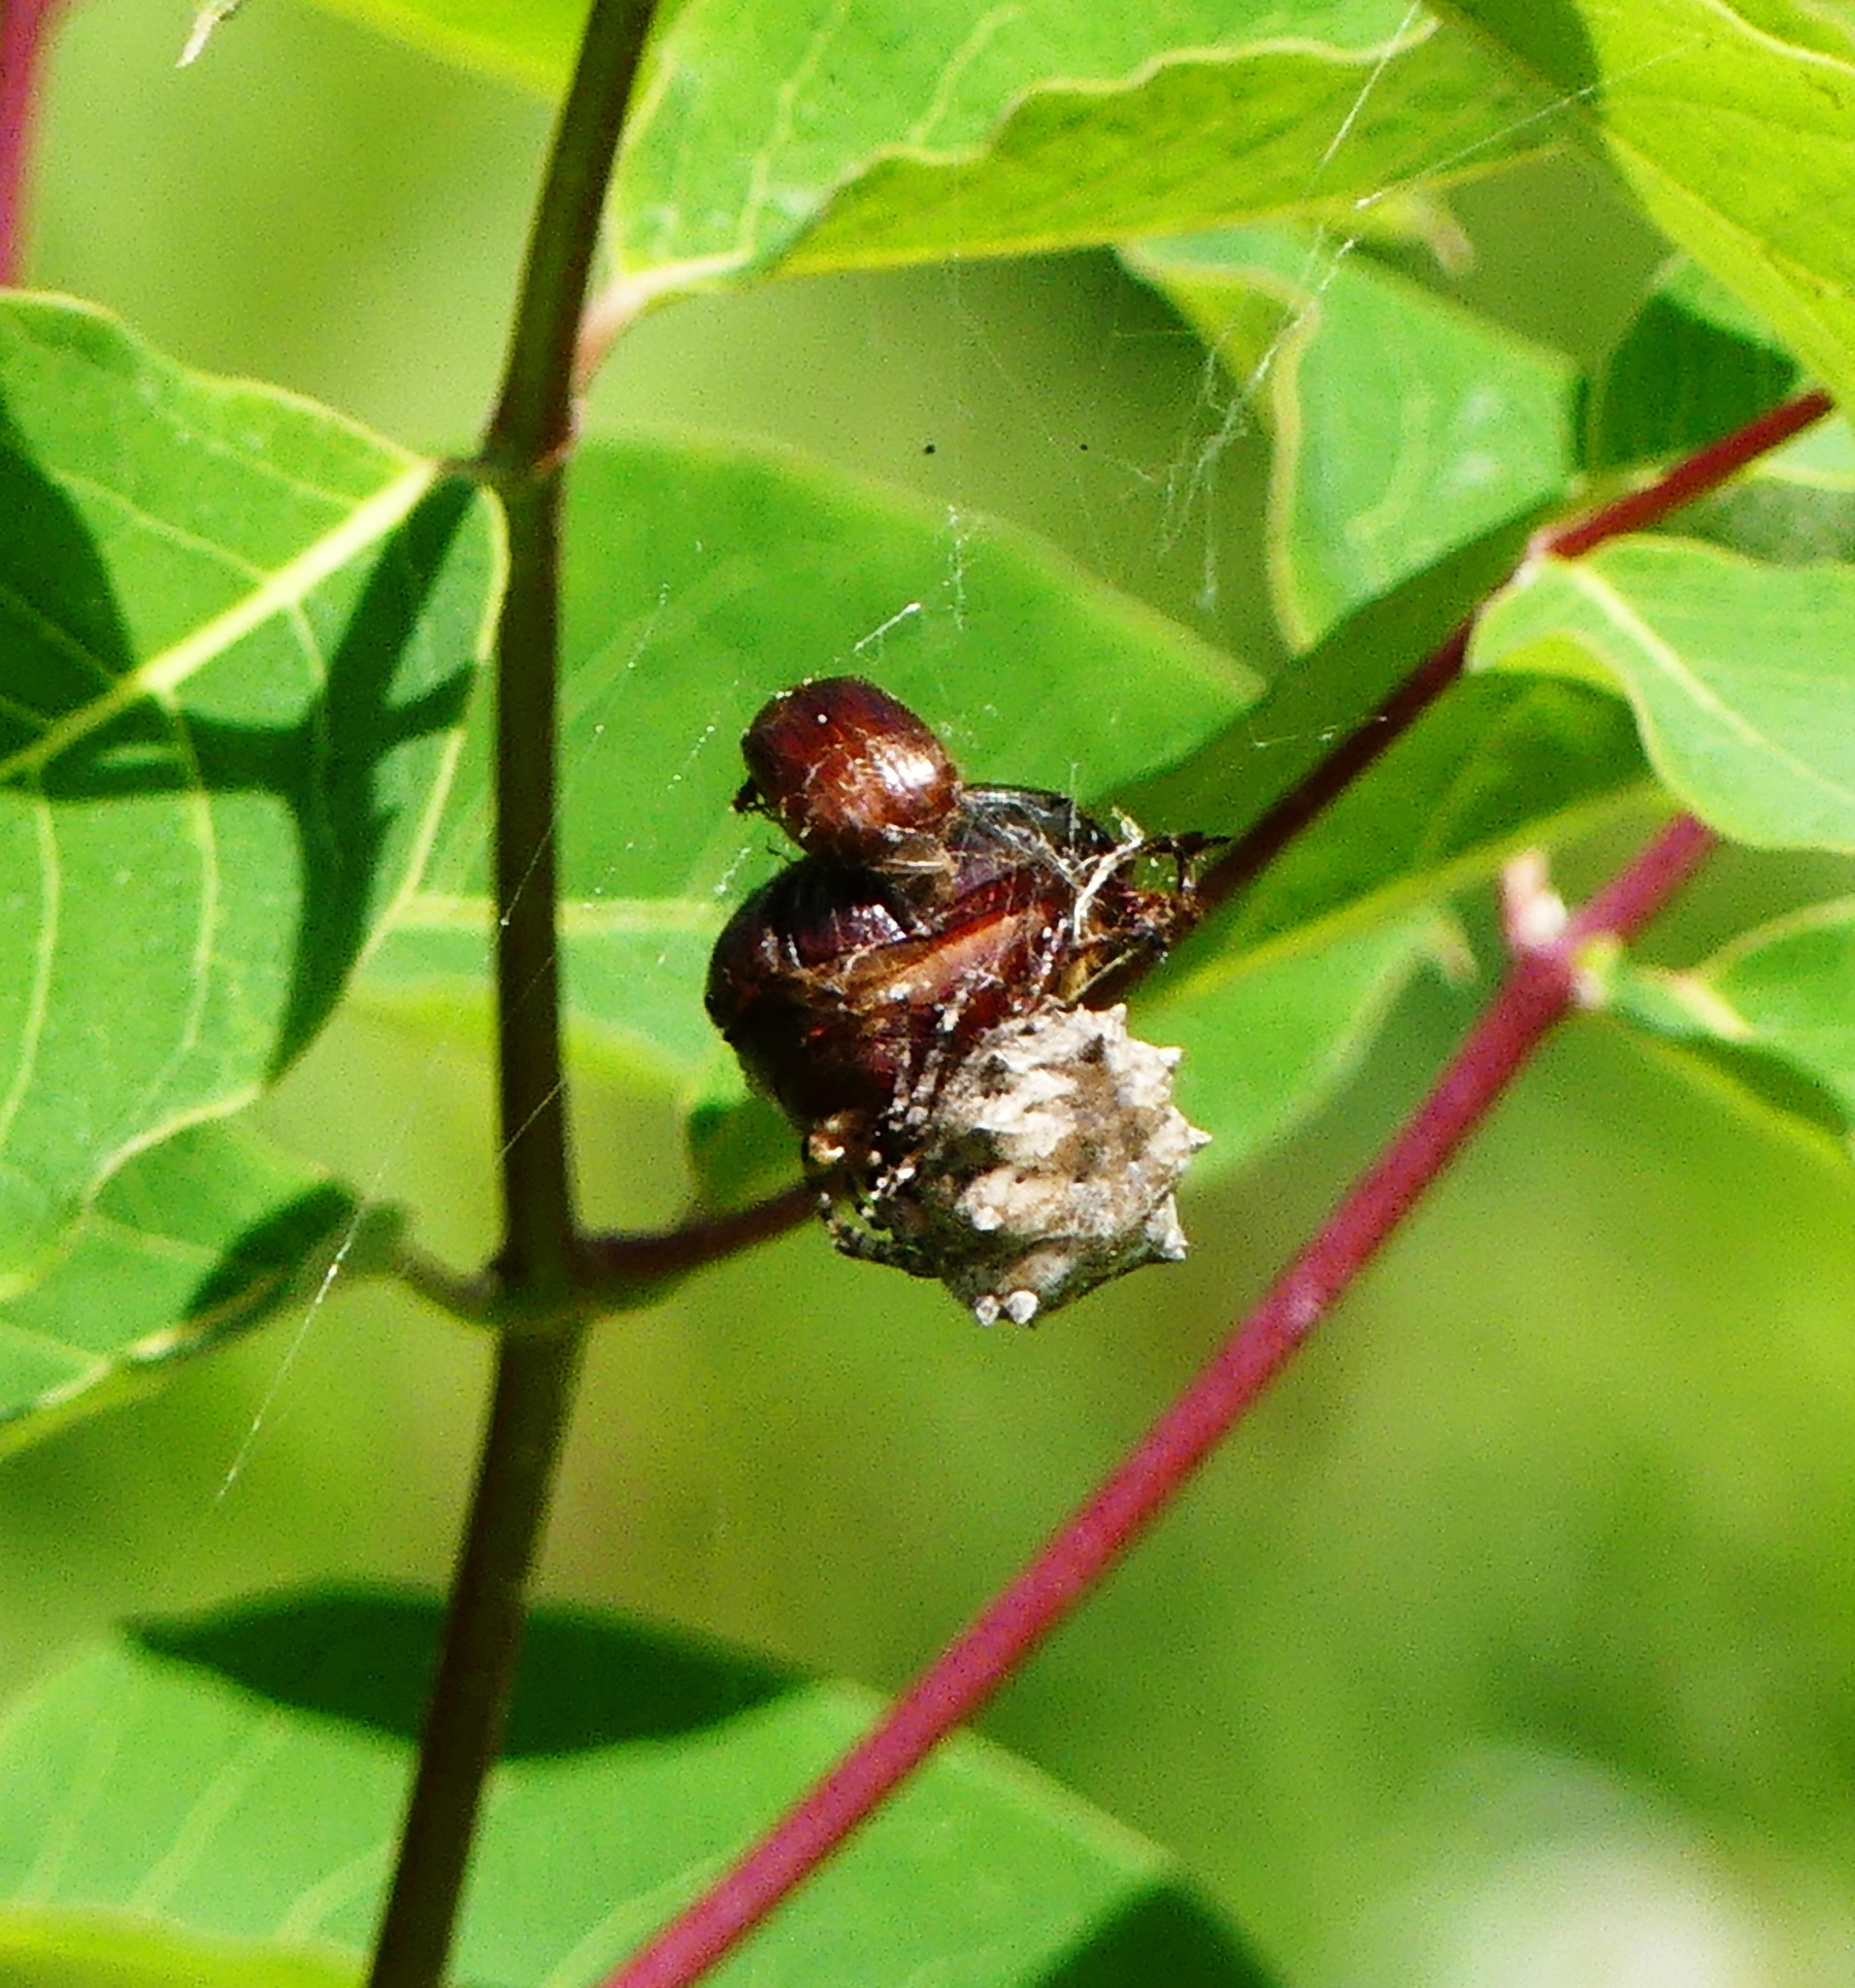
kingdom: Animalia
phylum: Arthropoda
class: Arachnida
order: Araneae
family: Araneidae
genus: Acanthepeira
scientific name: Acanthepeira stellata
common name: Starbellied orbweaver
